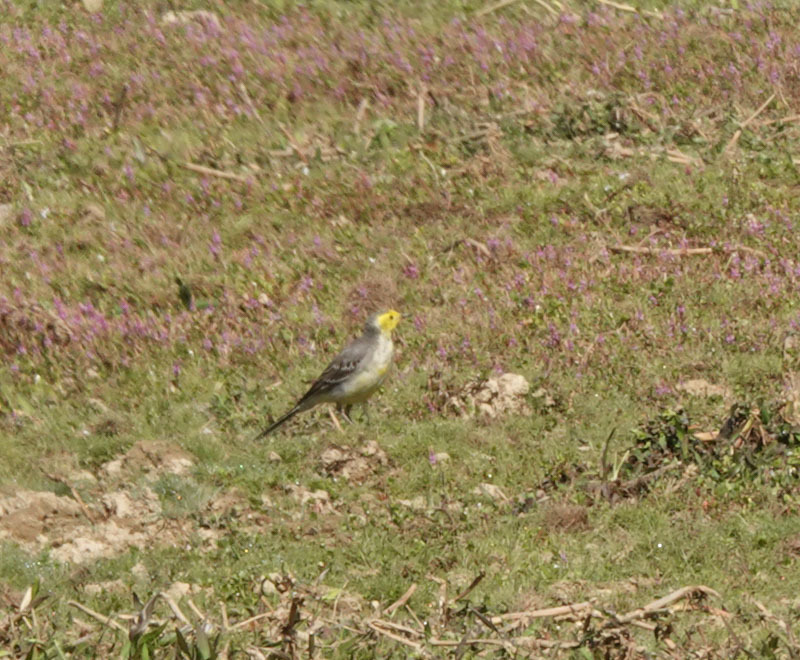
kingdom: Animalia
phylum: Chordata
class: Aves
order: Passeriformes
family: Motacillidae
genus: Motacilla
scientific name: Motacilla citreola
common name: Citrine wagtail
